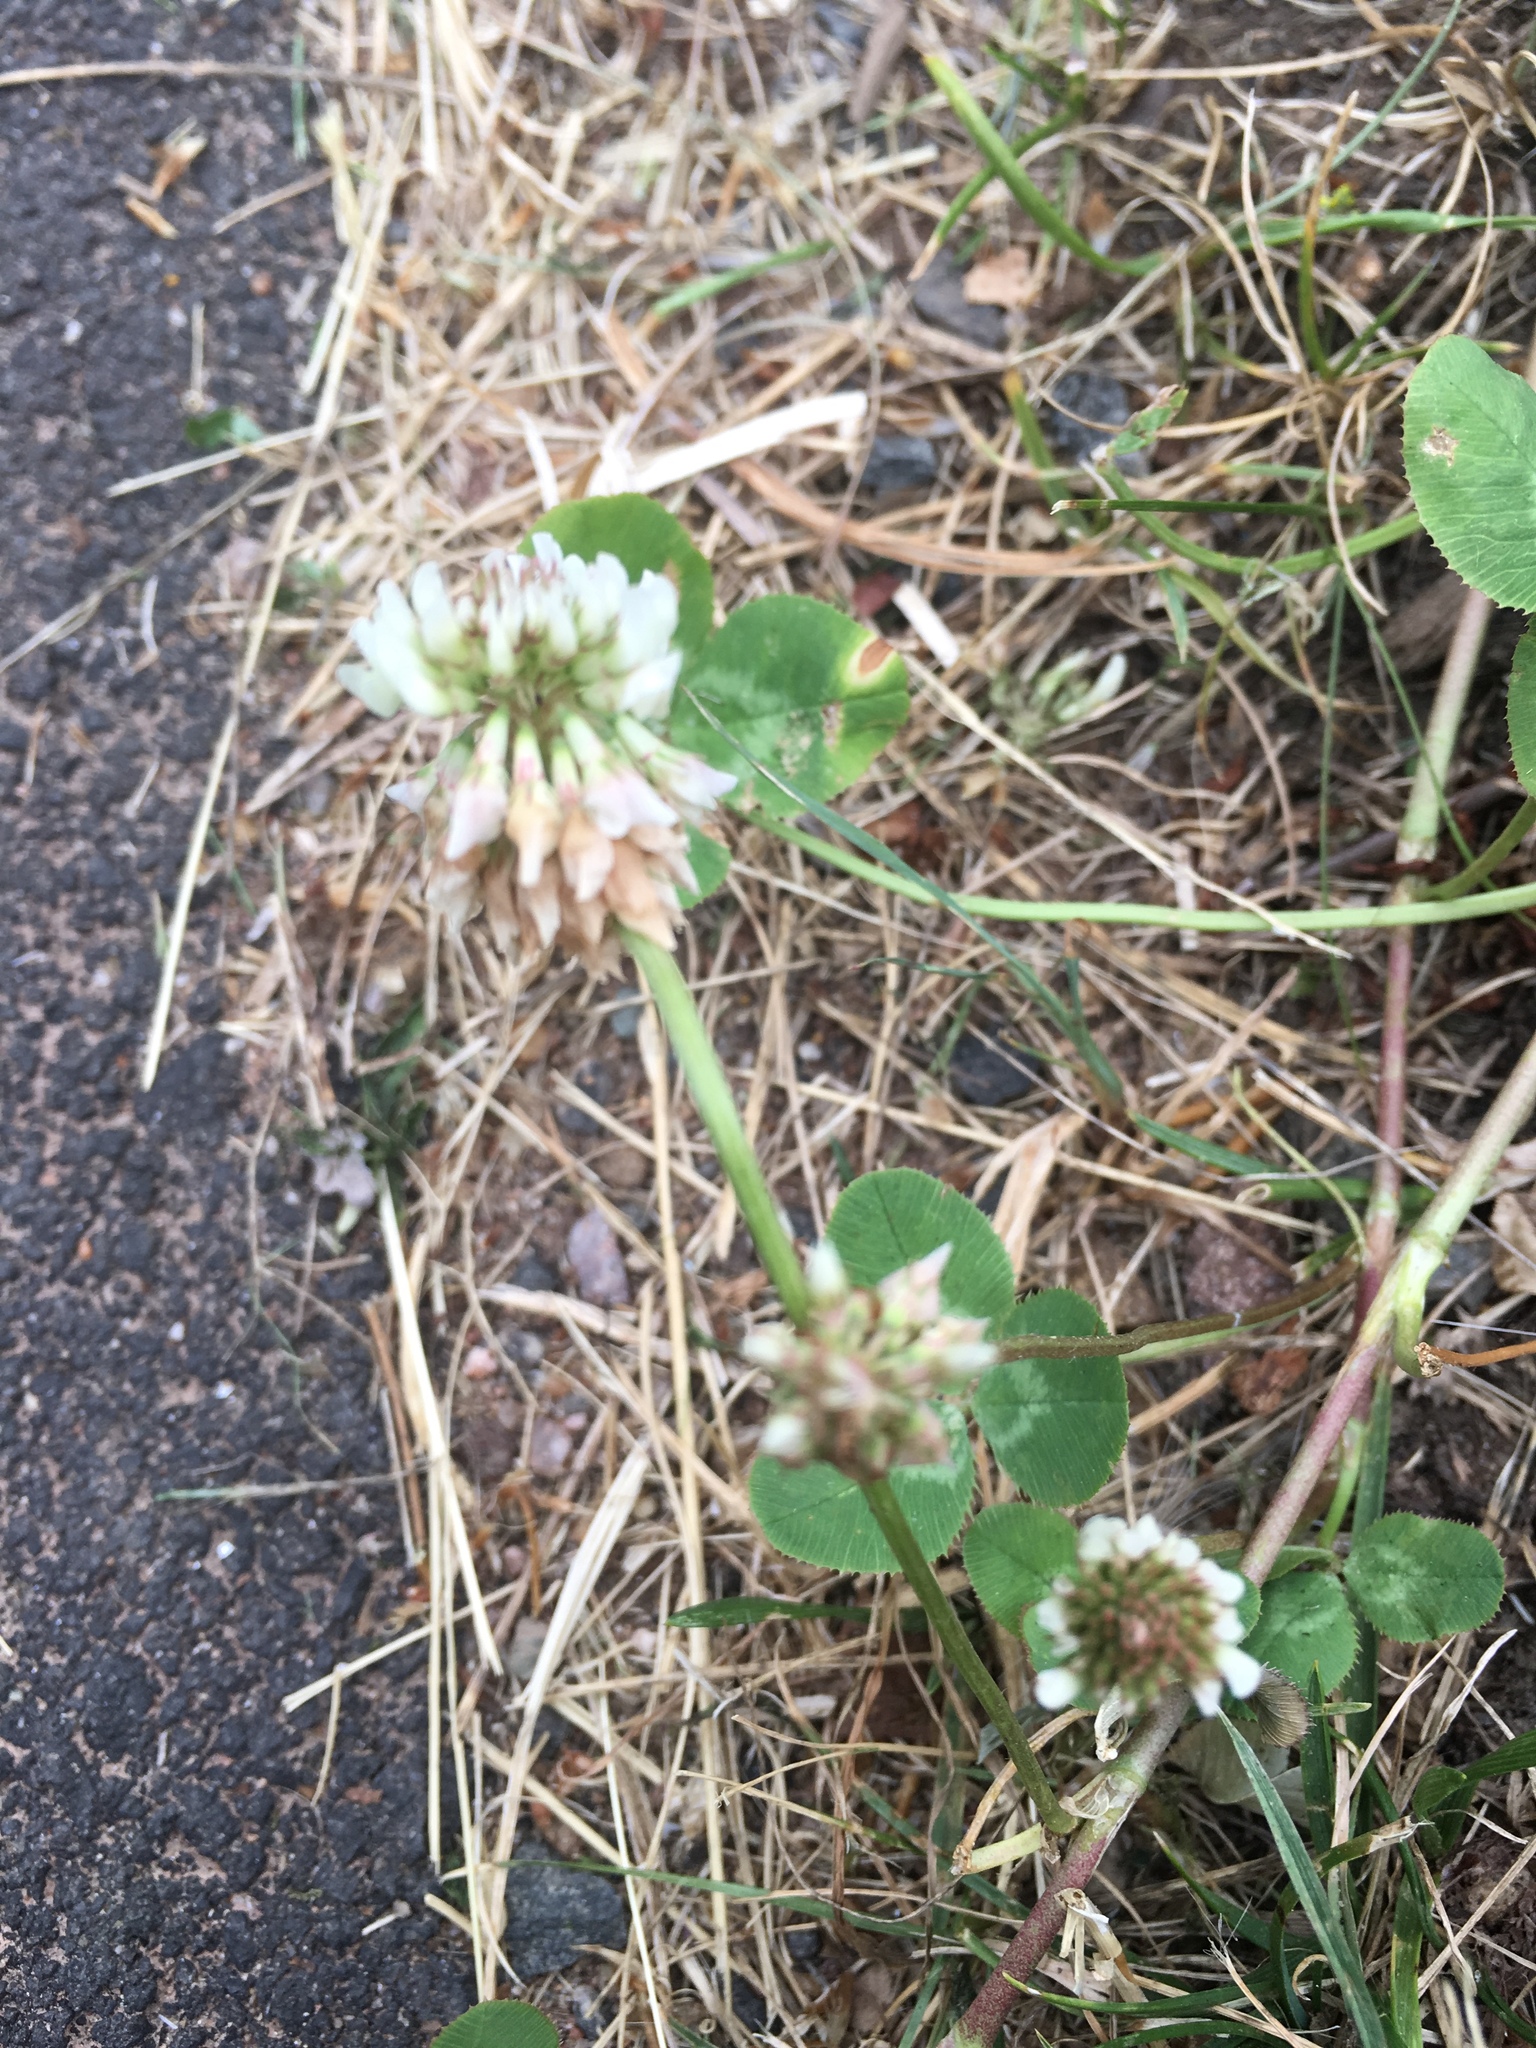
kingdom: Plantae
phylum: Tracheophyta
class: Magnoliopsida
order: Fabales
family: Fabaceae
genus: Trifolium
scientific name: Trifolium repens
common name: White clover
